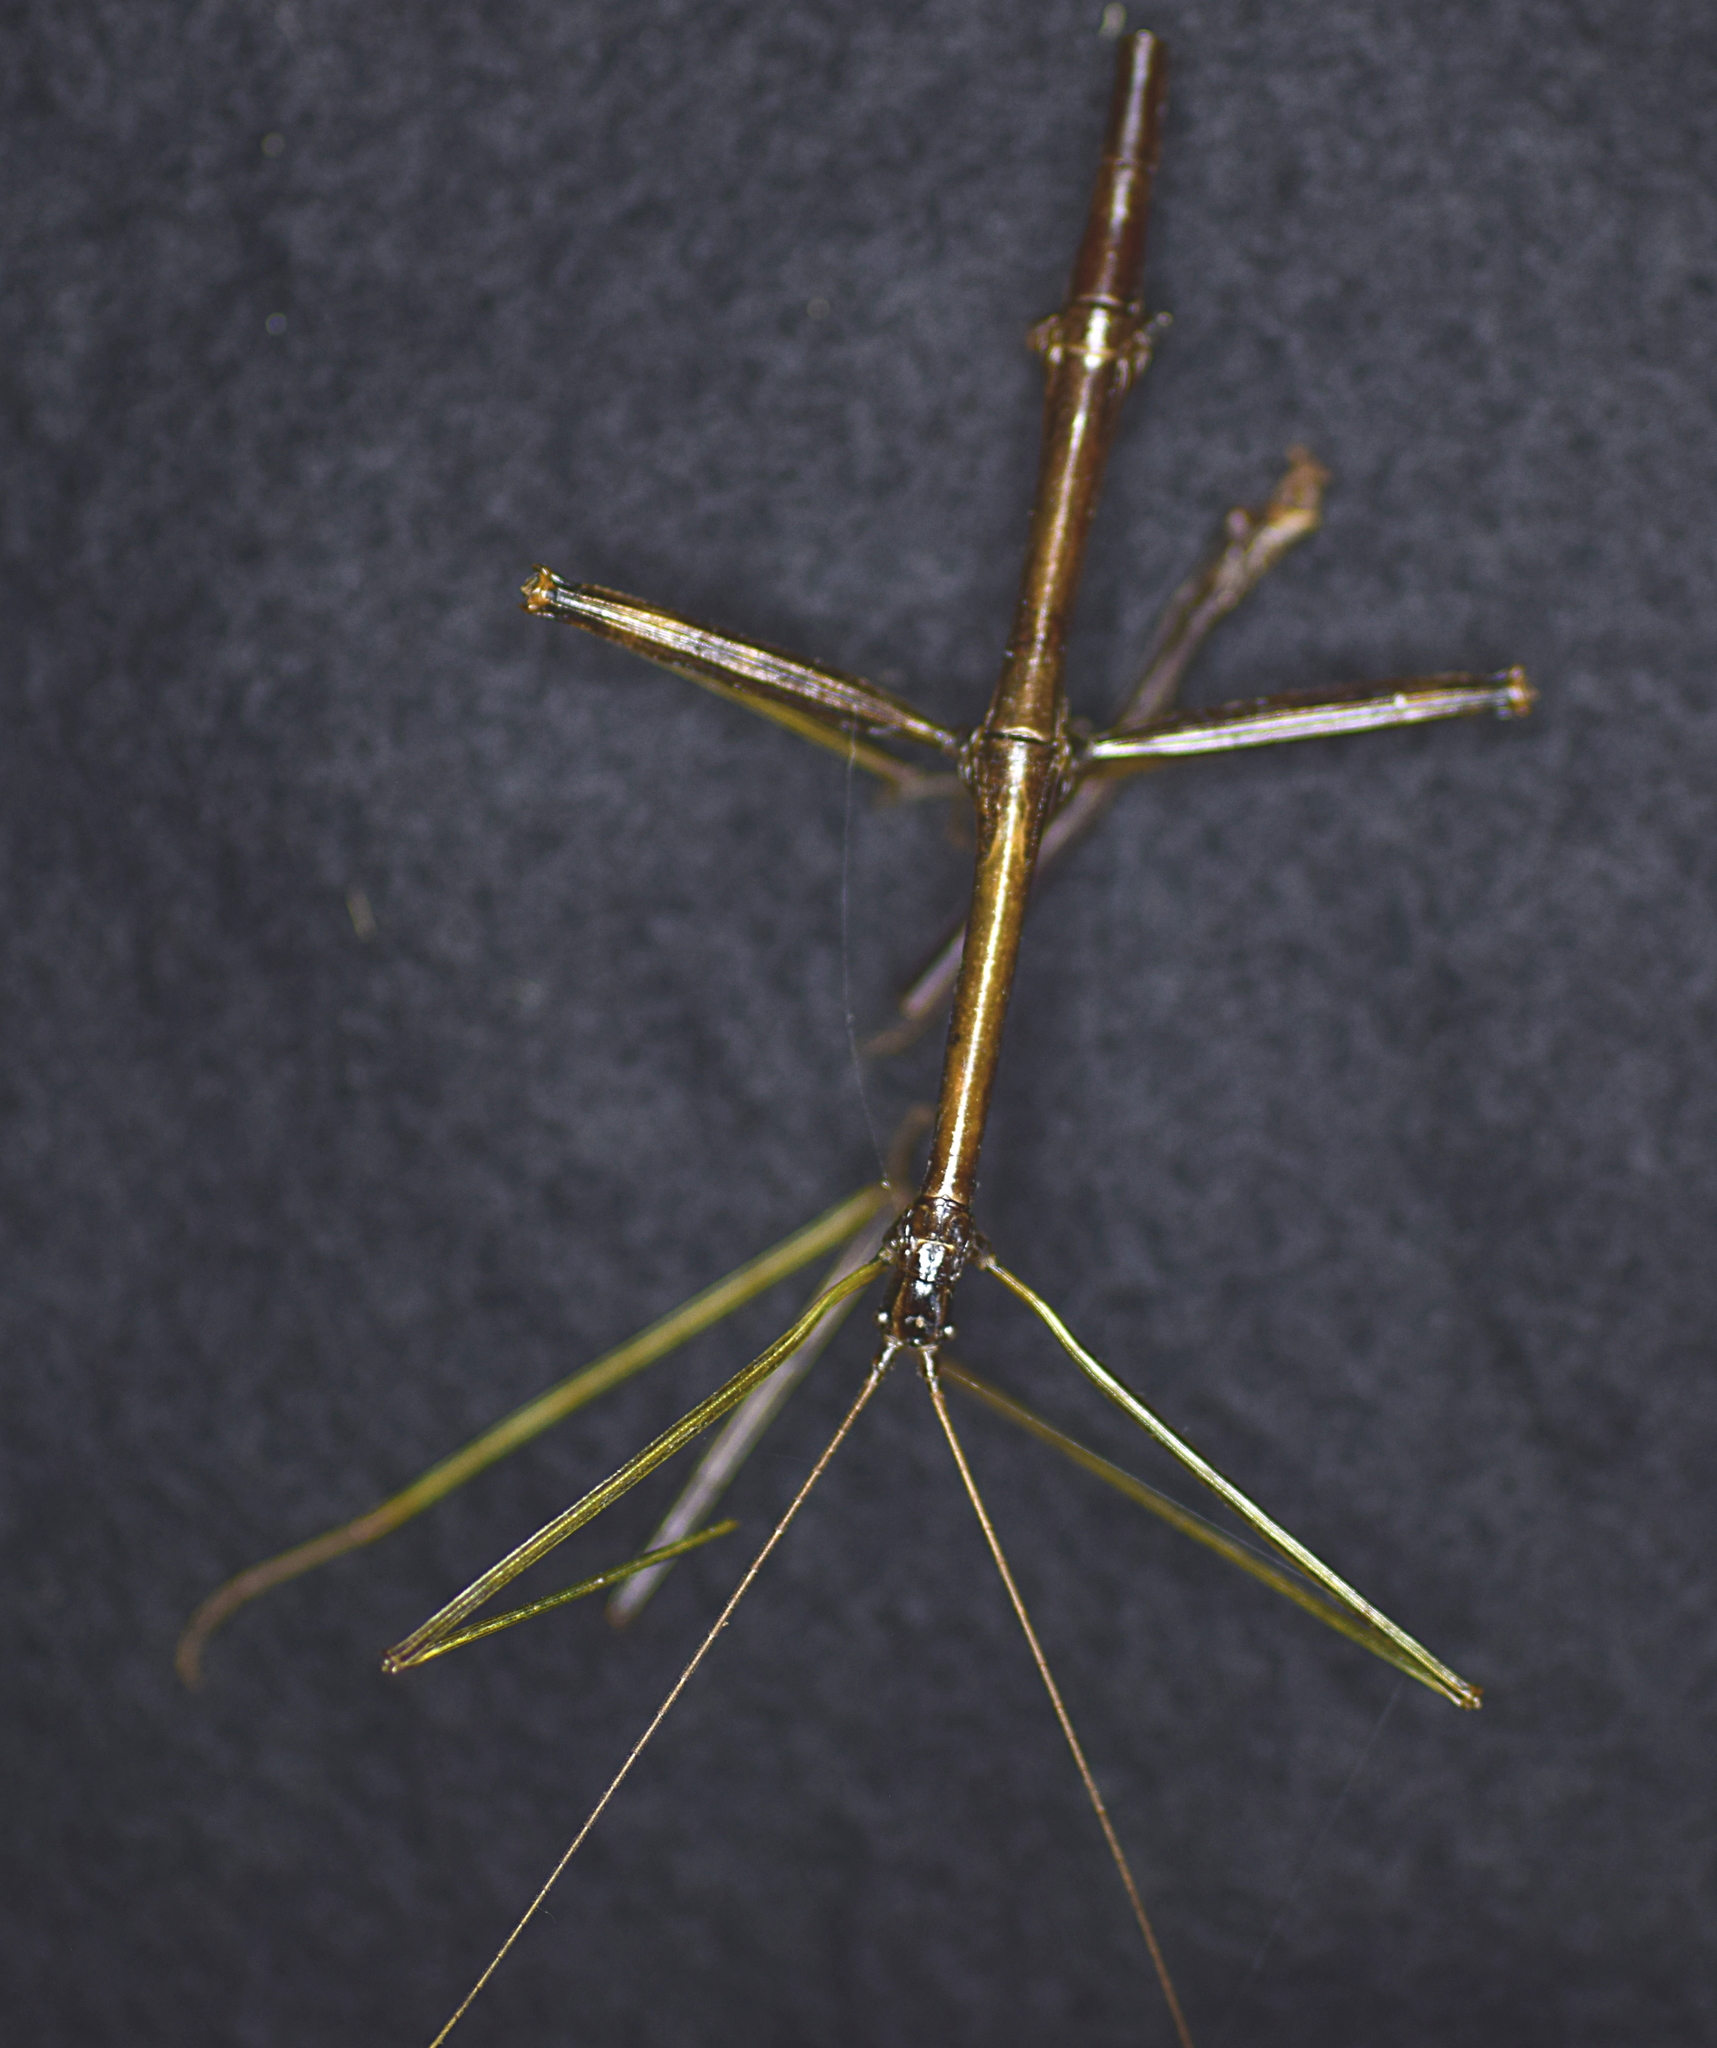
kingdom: Animalia
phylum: Arthropoda
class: Insecta
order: Phasmida
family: Diapheromeridae
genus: Diapheromera
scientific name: Diapheromera femorata
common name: Common american walkingstick
